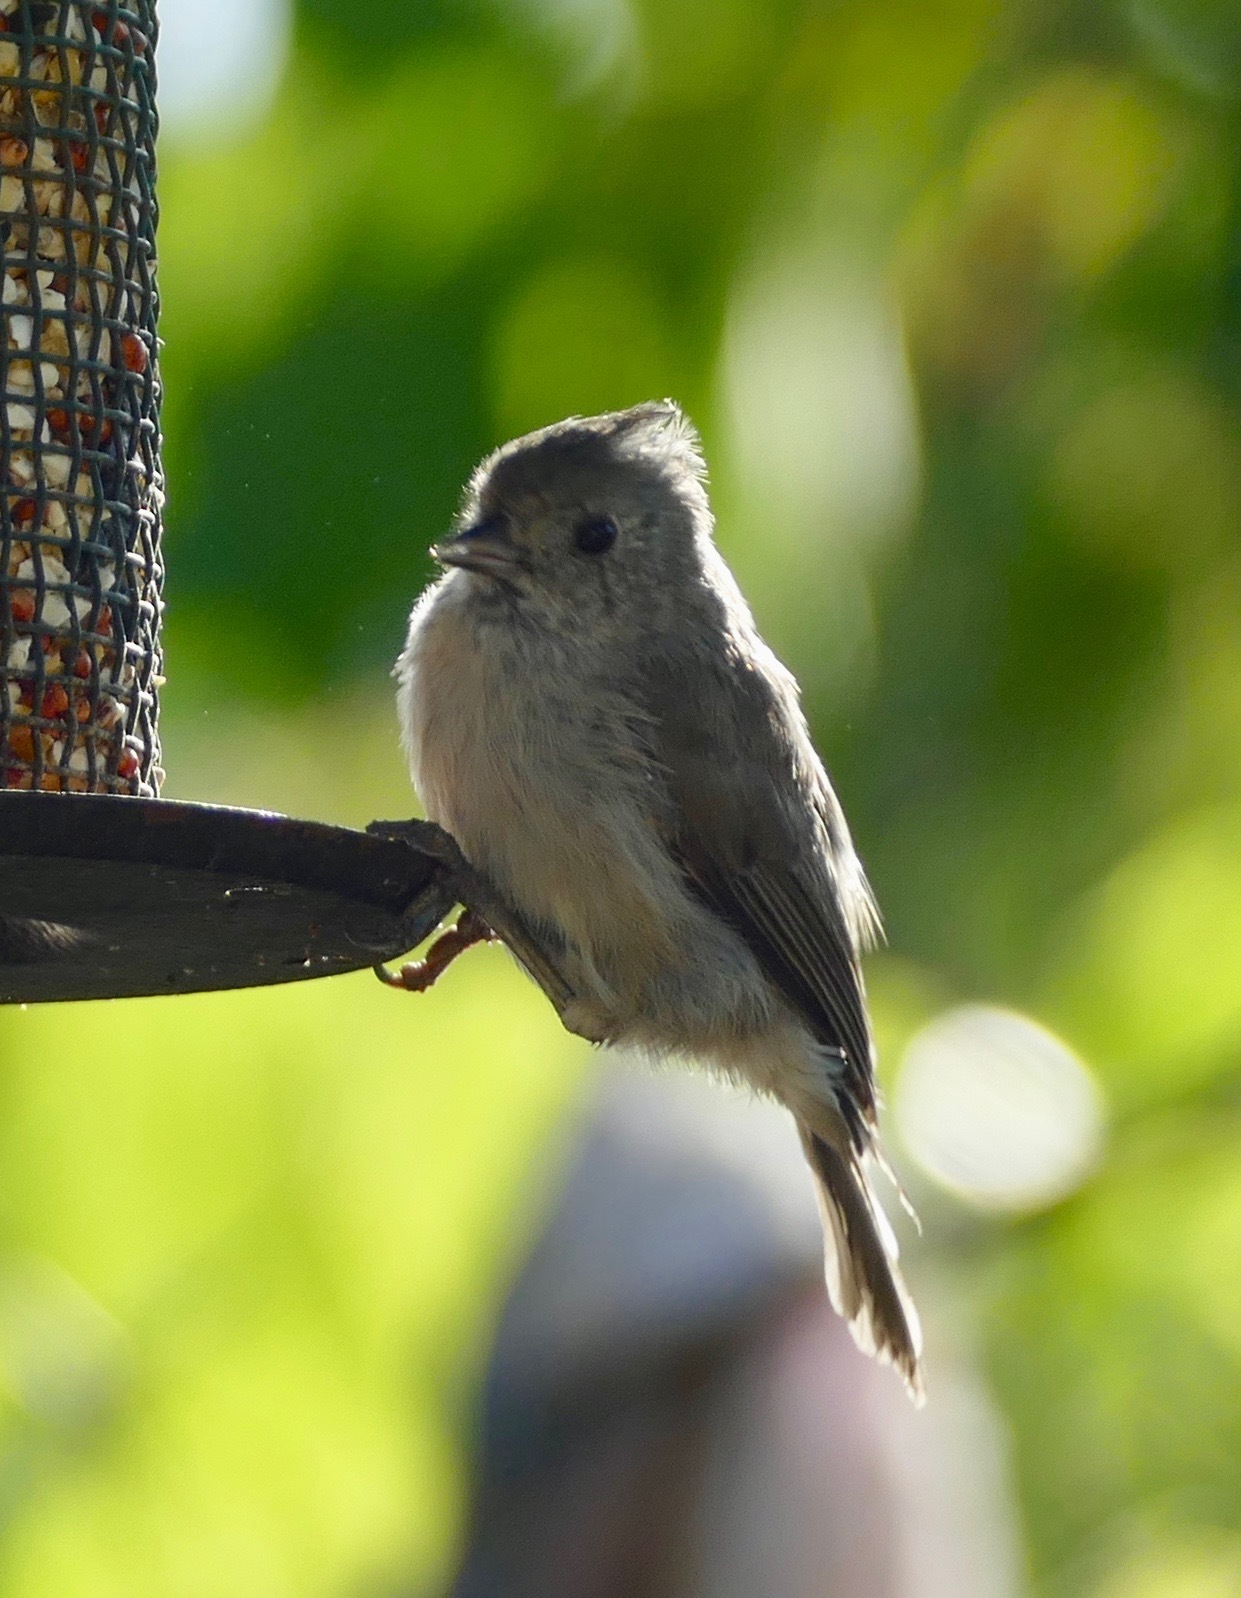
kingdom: Animalia
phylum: Chordata
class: Aves
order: Passeriformes
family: Paridae
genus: Baeolophus
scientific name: Baeolophus inornatus
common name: Oak titmouse
